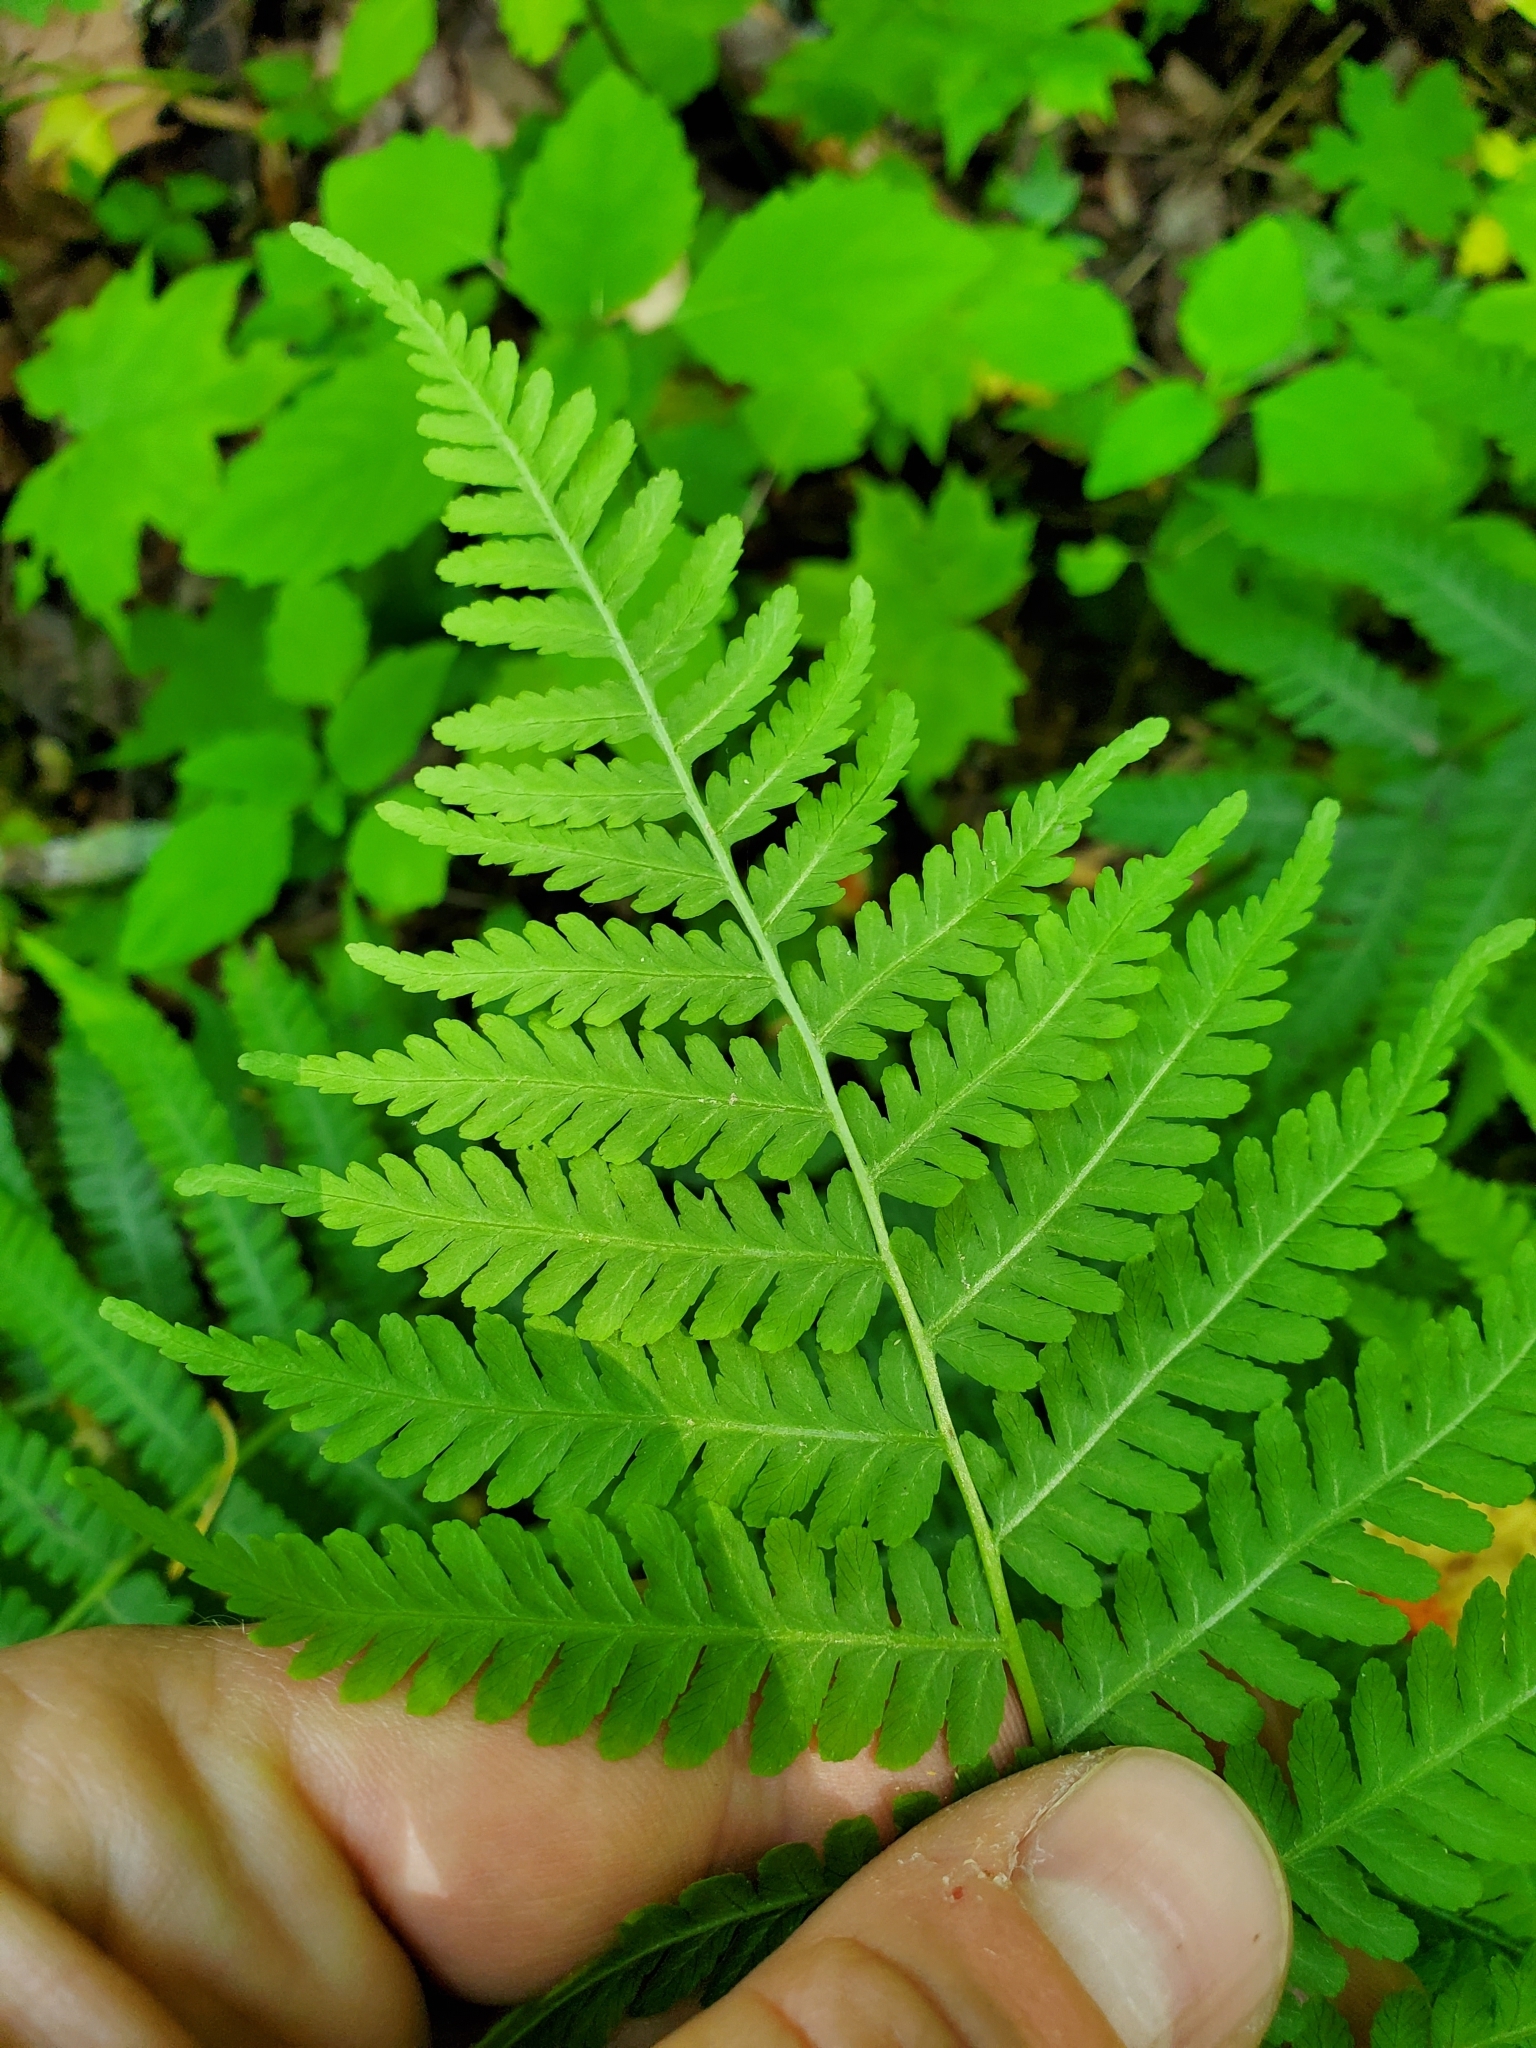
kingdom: Plantae
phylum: Tracheophyta
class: Polypodiopsida
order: Polypodiales
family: Athyriaceae
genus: Deparia
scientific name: Deparia acrostichoides
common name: Silver false spleenwort
